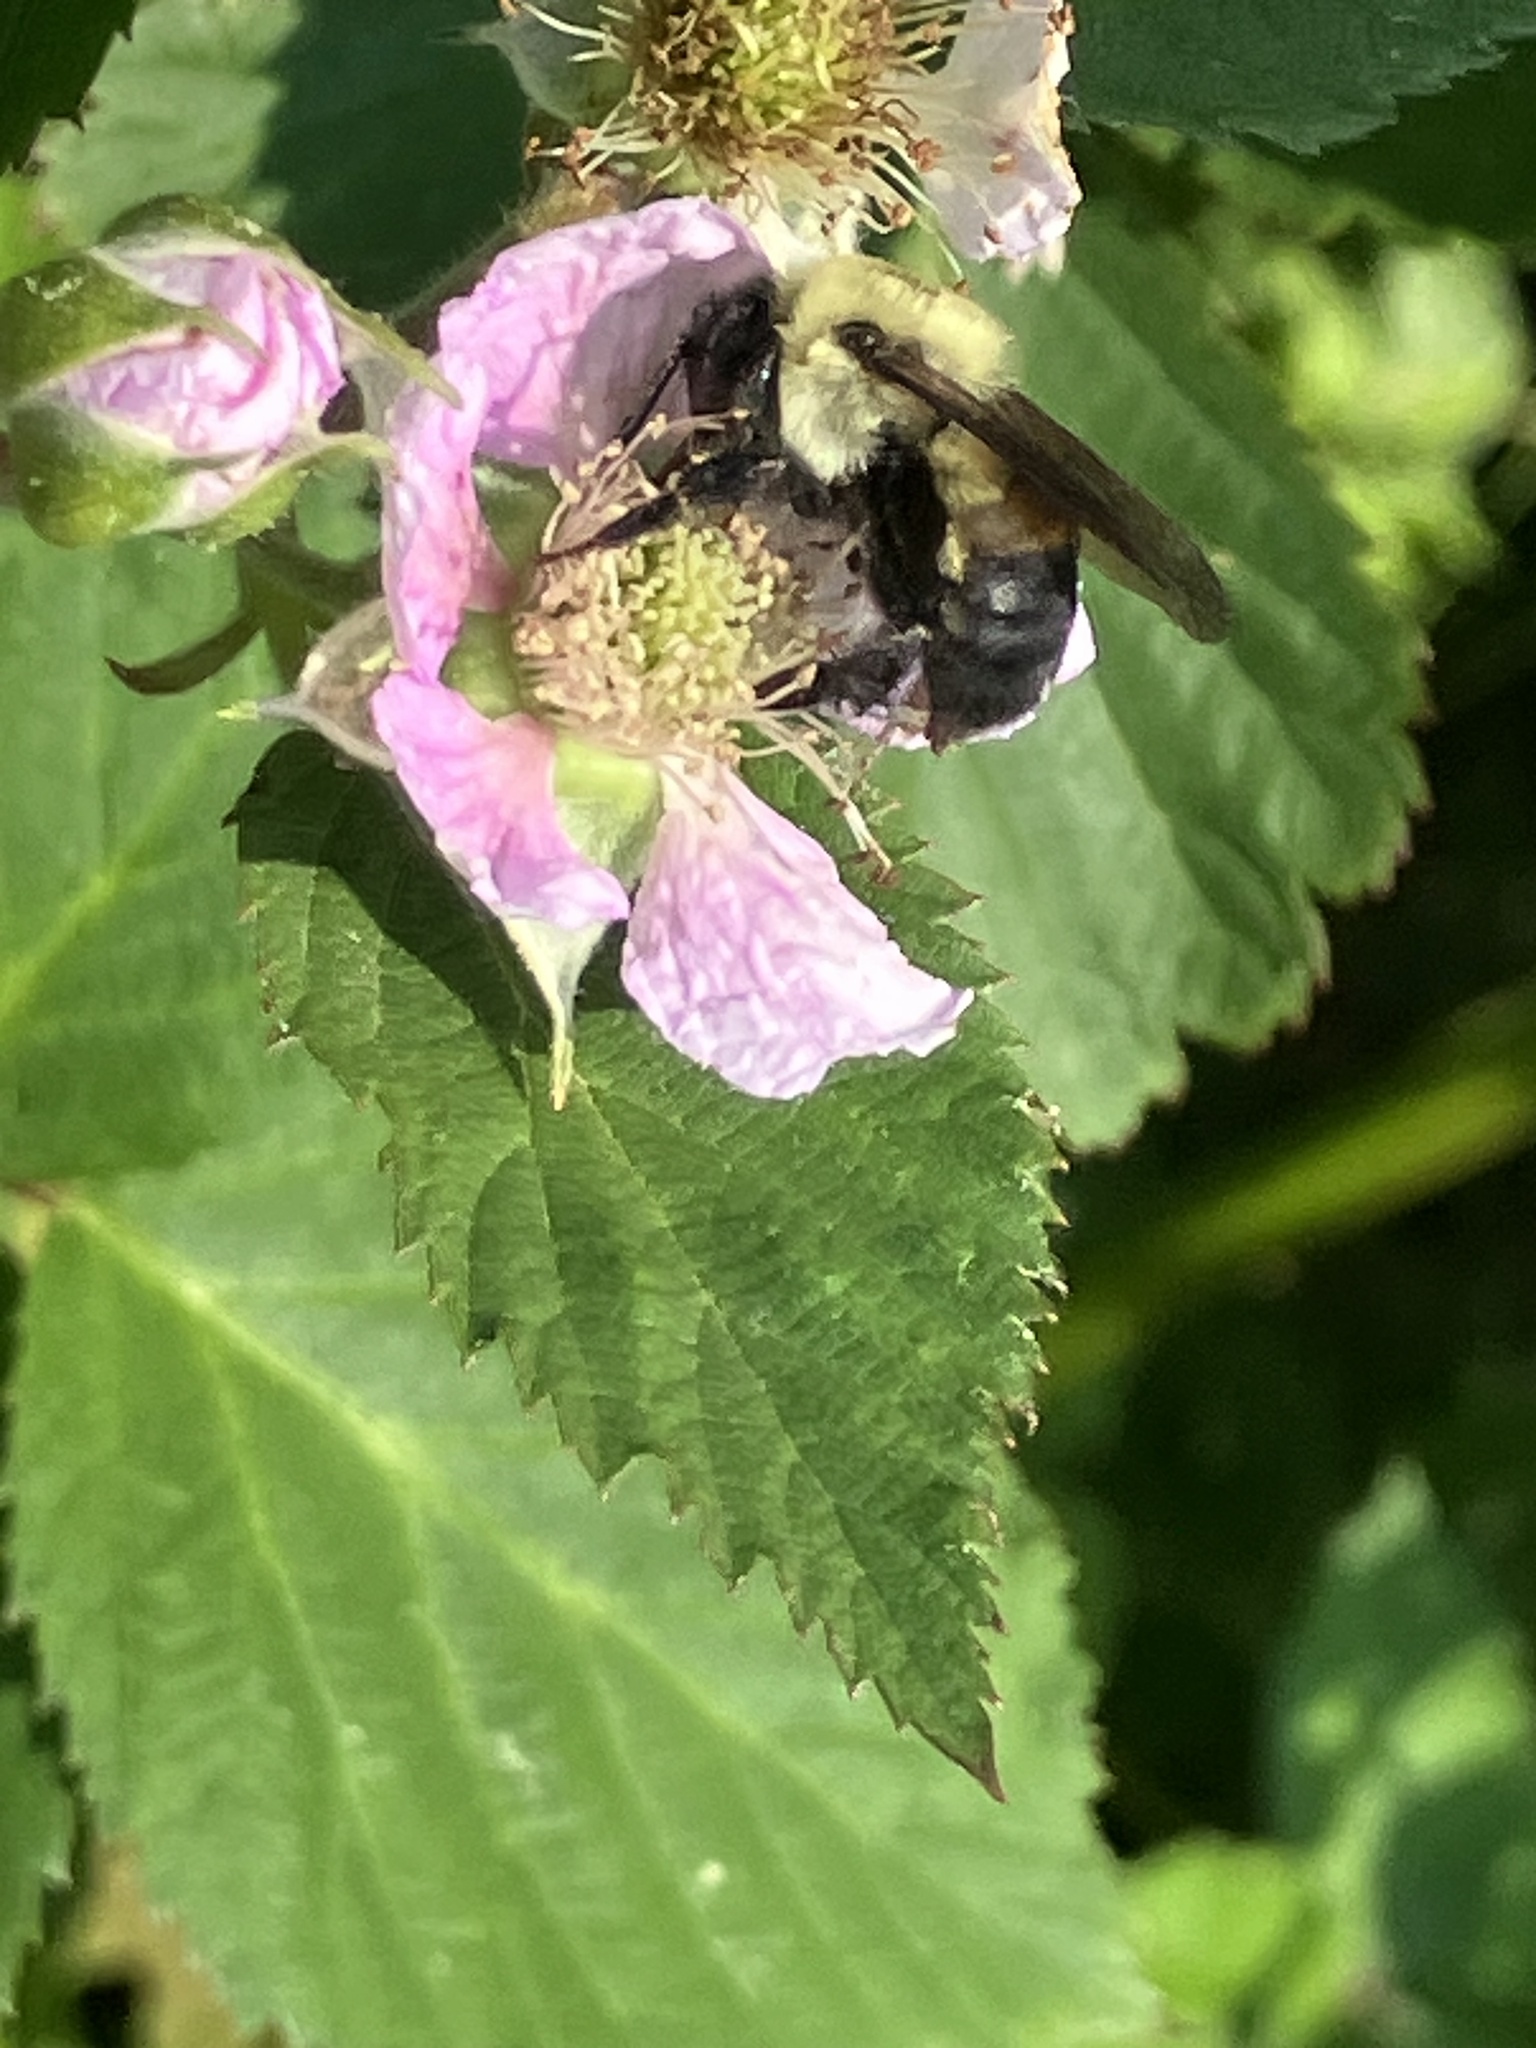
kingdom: Animalia
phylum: Arthropoda
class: Insecta
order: Hymenoptera
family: Apidae
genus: Bombus
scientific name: Bombus griseocollis
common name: Brown-belted bumble bee
